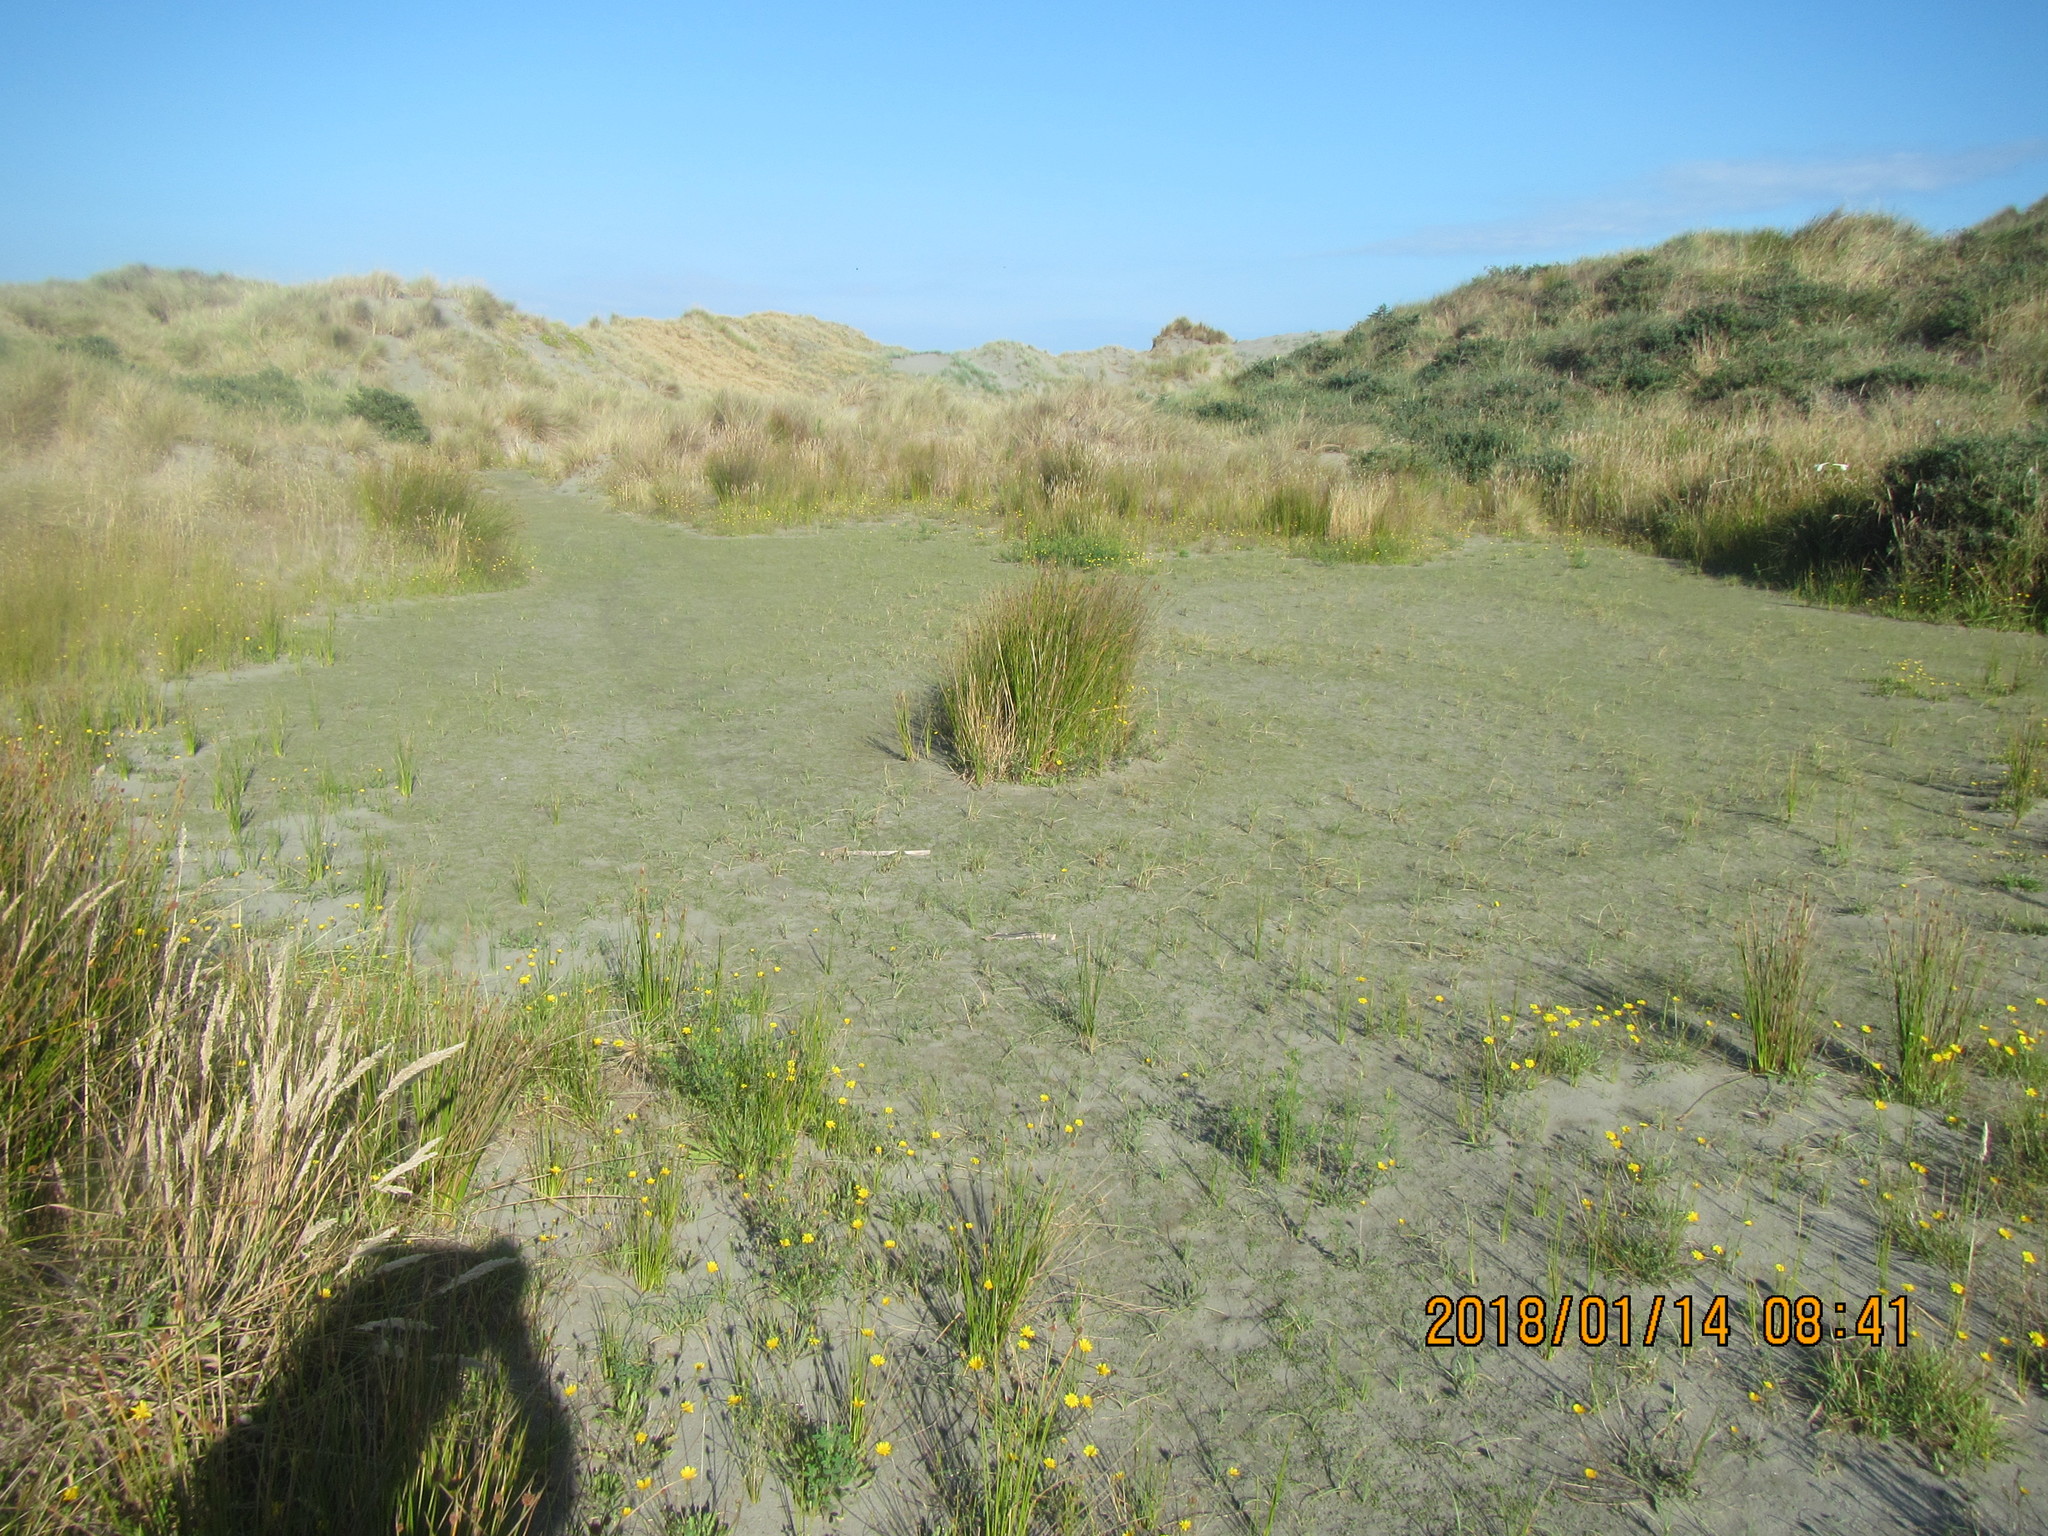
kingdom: Plantae
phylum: Tracheophyta
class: Liliopsida
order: Poales
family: Cyperaceae
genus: Carex
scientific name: Carex pumila
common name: Dwarf sedge
